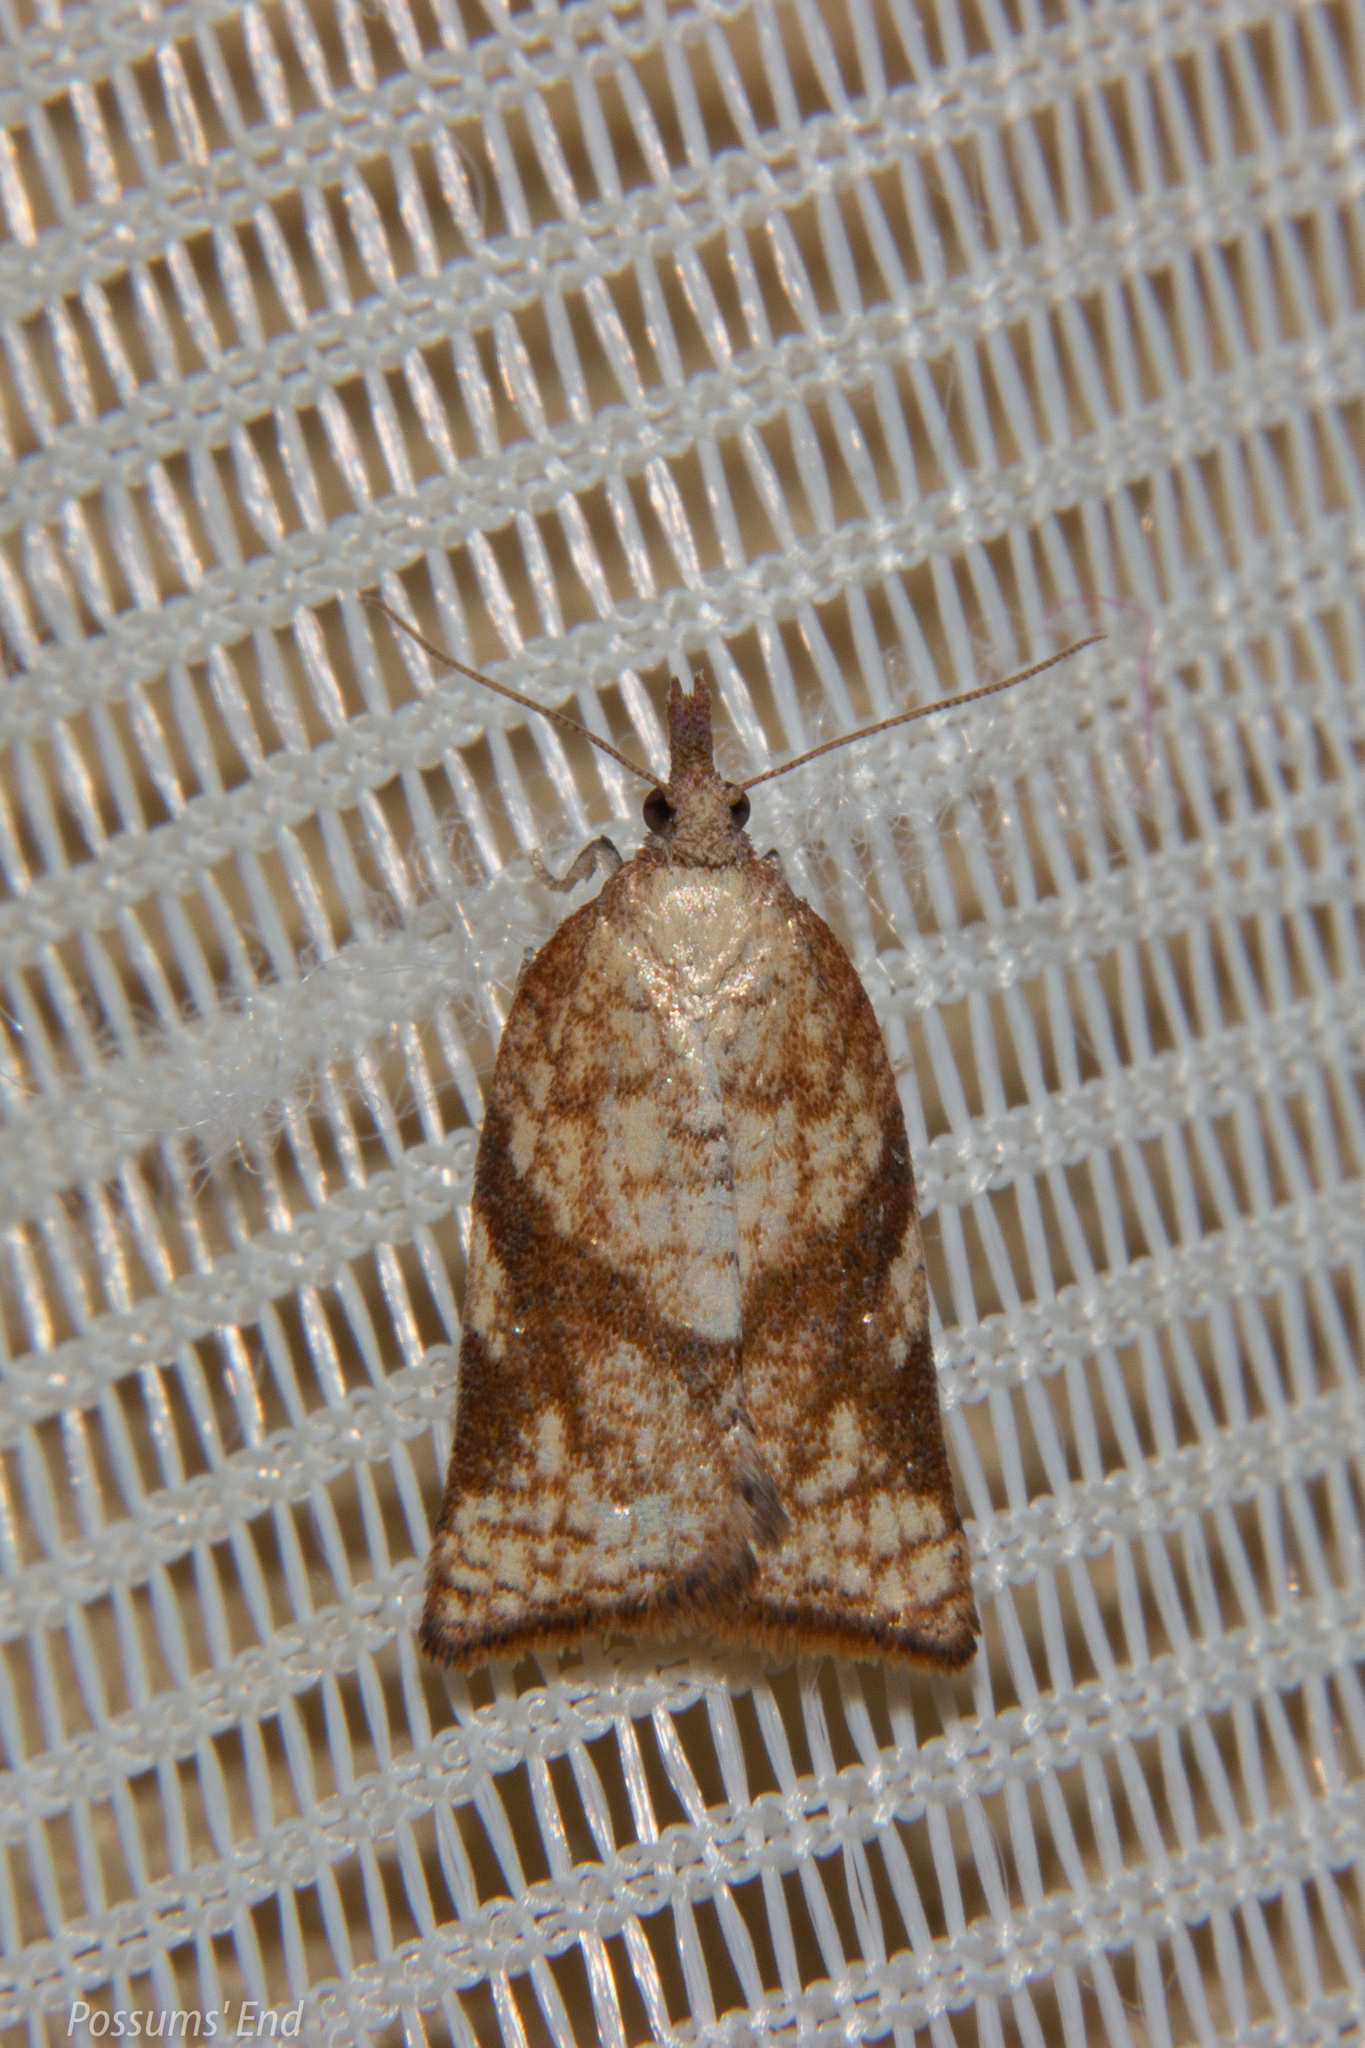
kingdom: Animalia
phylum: Arthropoda
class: Insecta
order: Lepidoptera
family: Tortricidae
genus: Catamacta
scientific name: Catamacta gavisana
